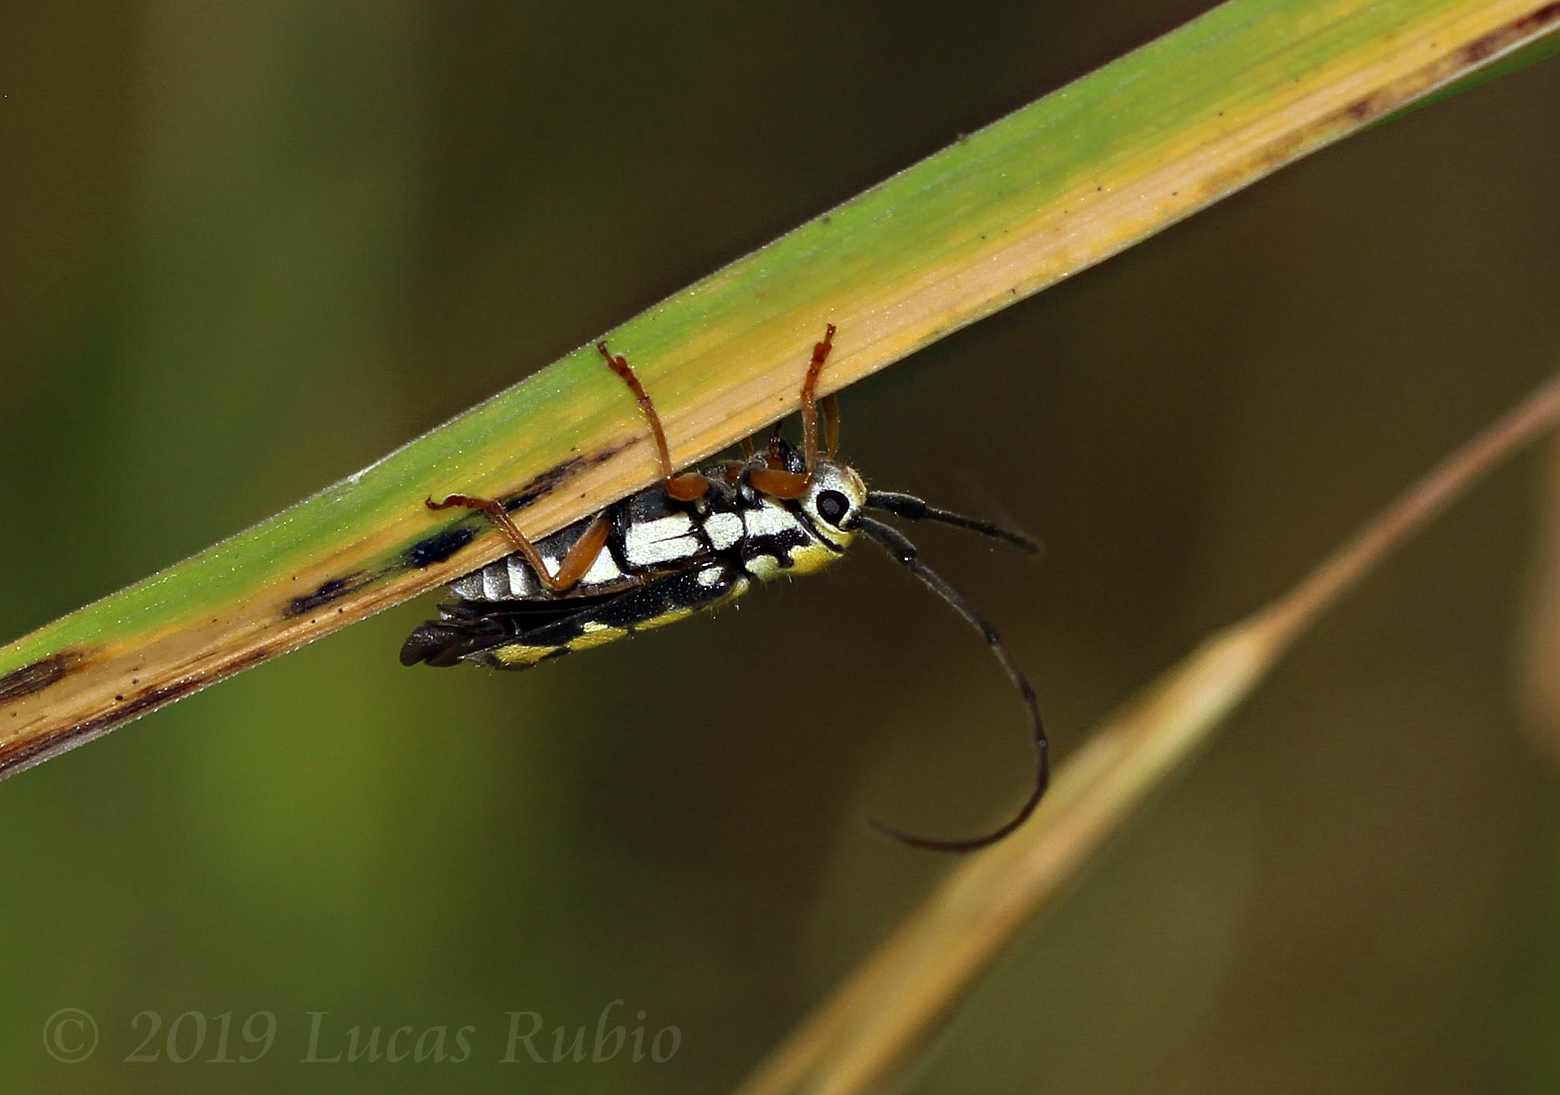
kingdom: Animalia
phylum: Arthropoda
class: Insecta
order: Coleoptera
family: Cerambycidae
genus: Zeale
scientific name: Zeale nigromaculata
